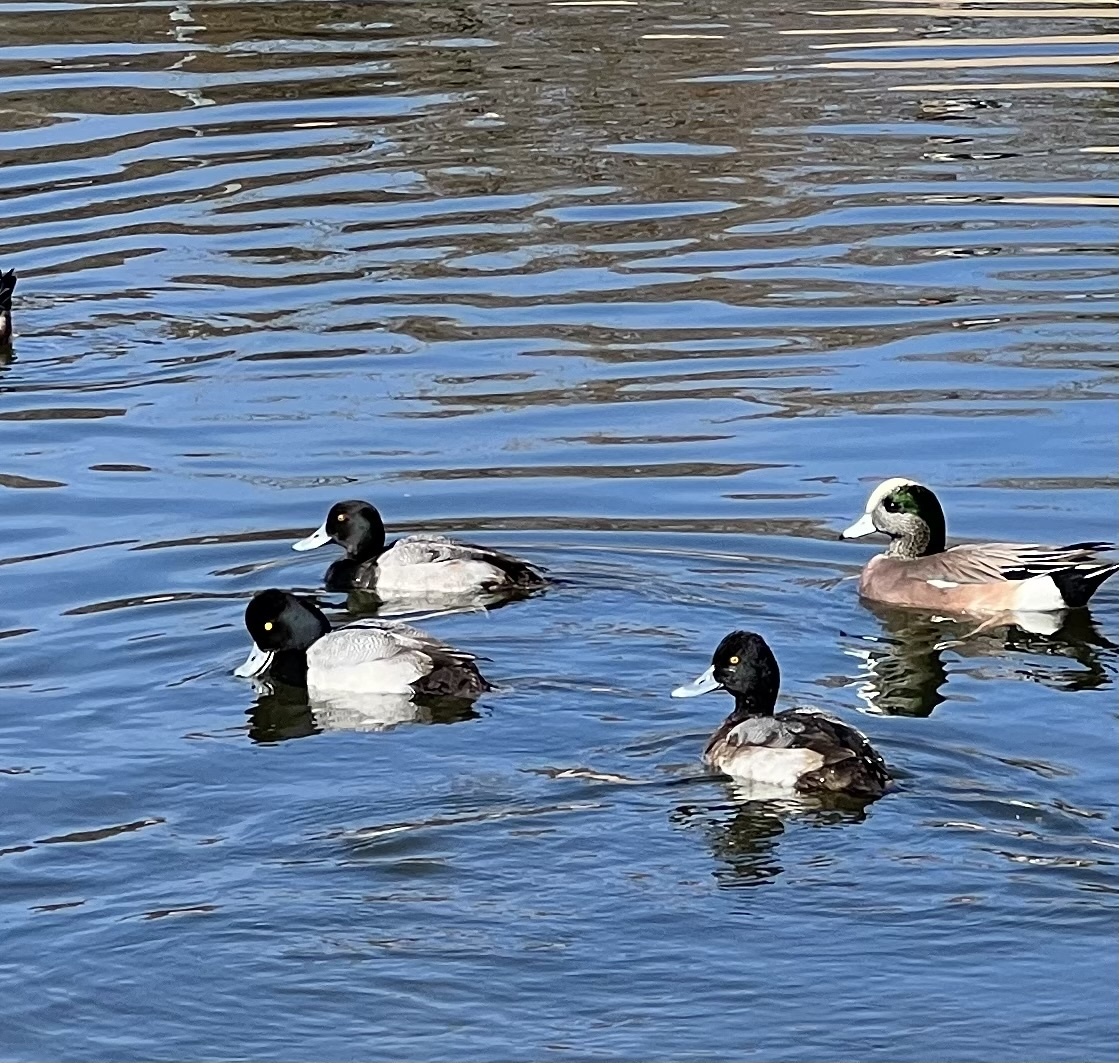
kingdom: Animalia
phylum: Chordata
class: Aves
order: Anseriformes
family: Anatidae
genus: Aythya
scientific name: Aythya affinis
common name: Lesser scaup
